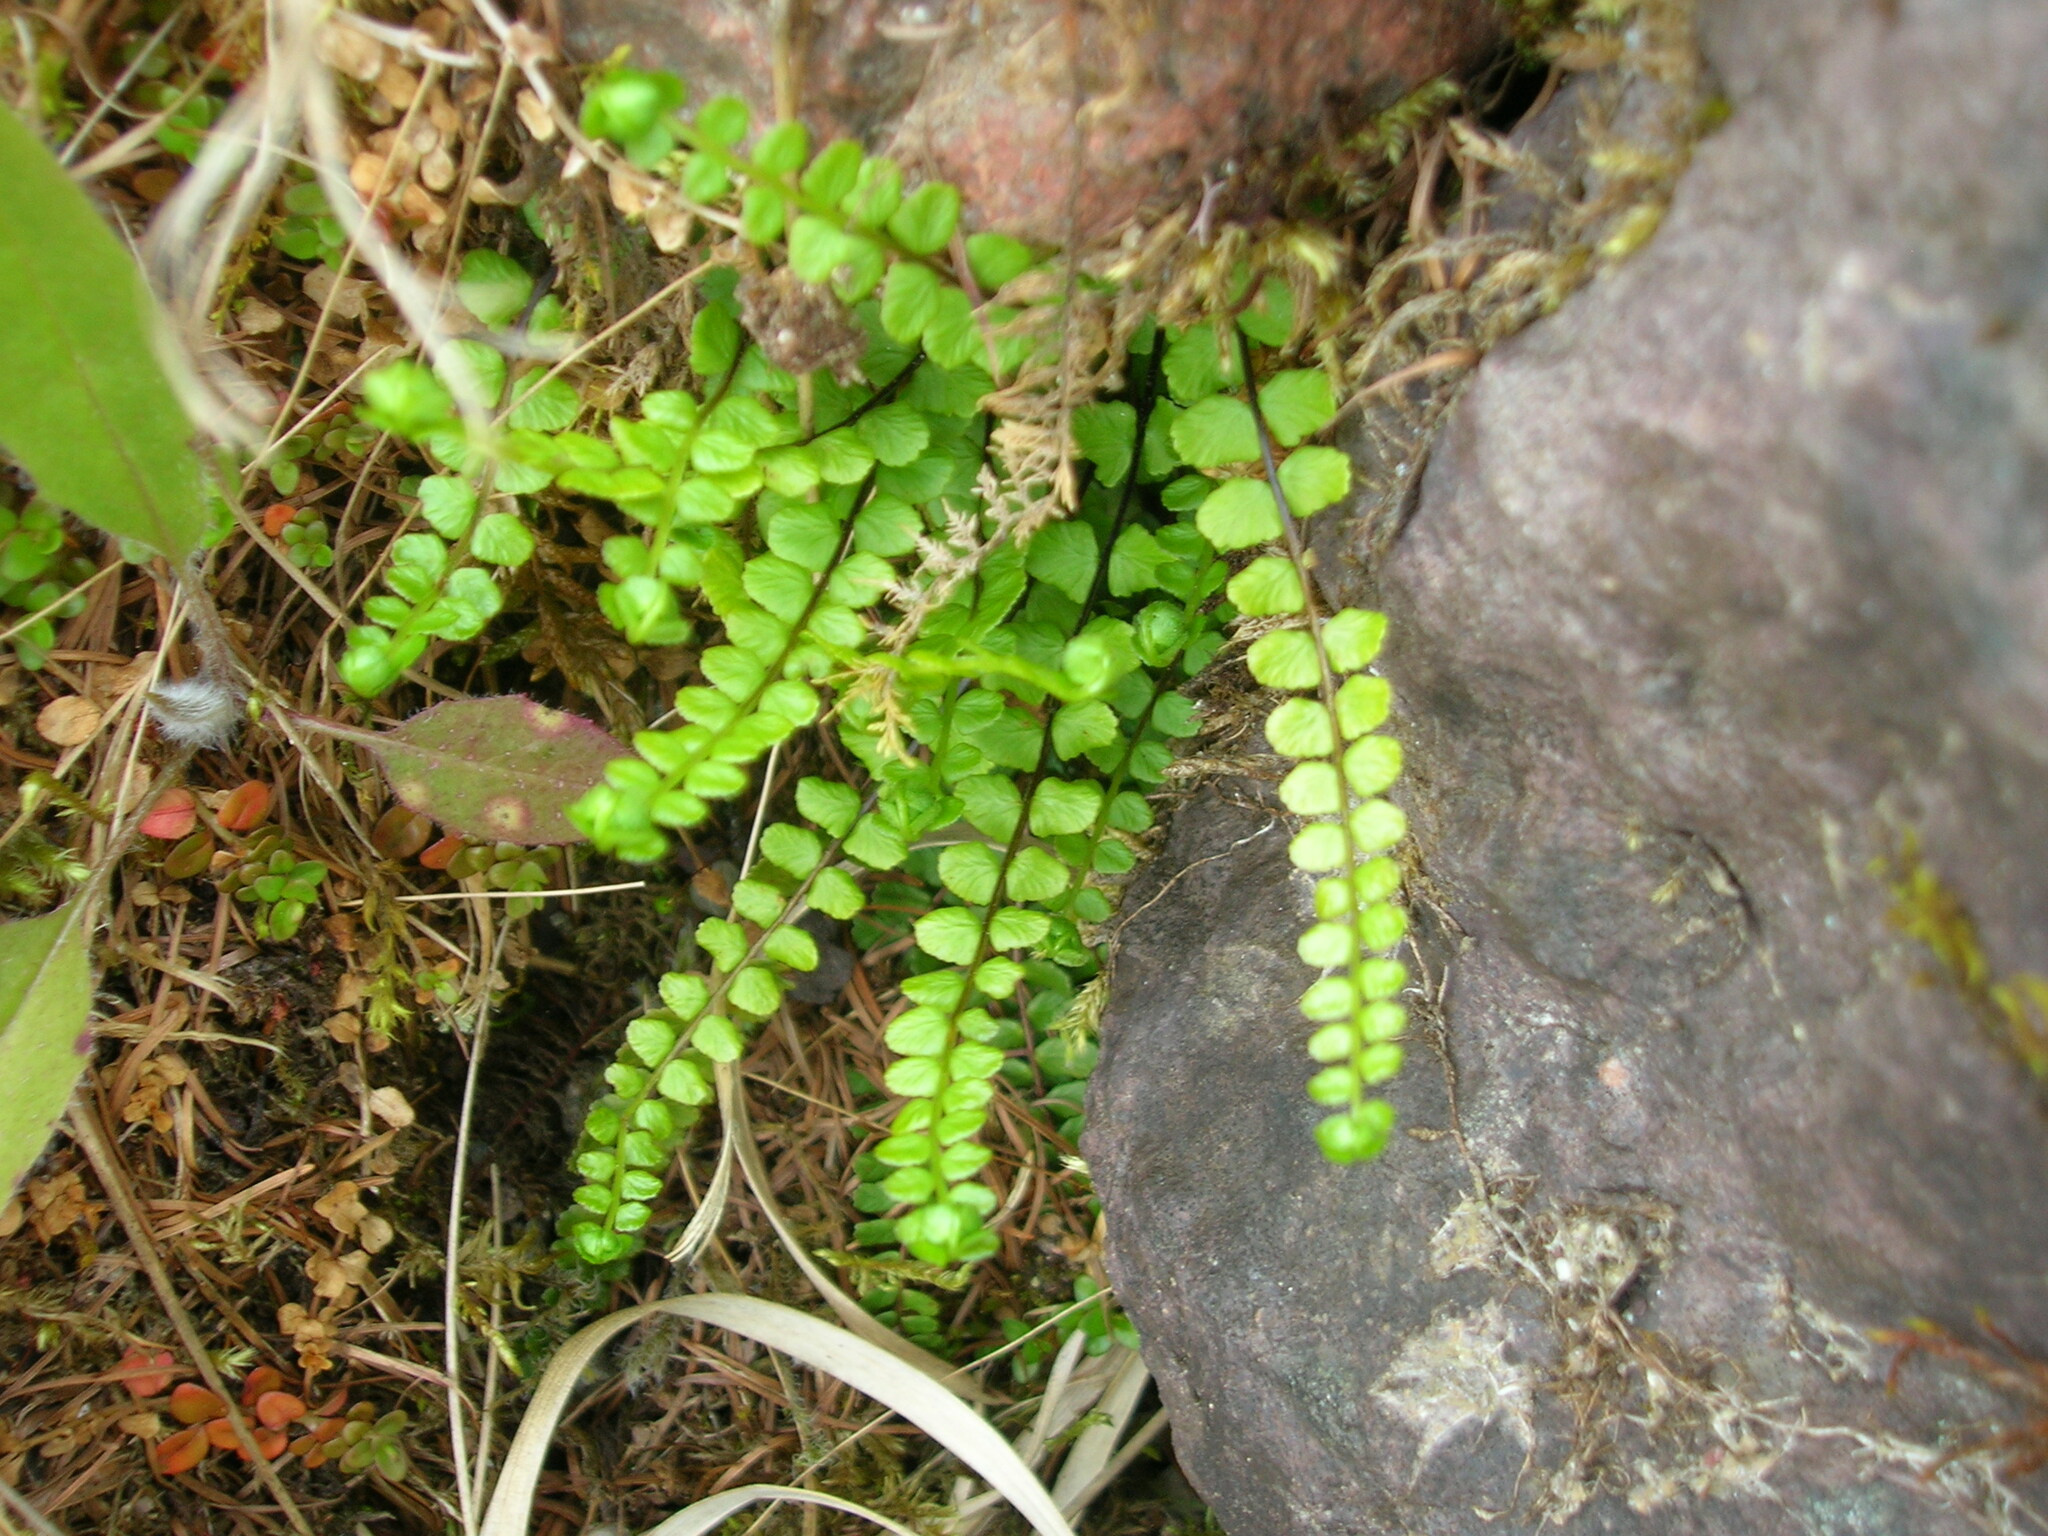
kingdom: Plantae
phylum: Tracheophyta
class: Polypodiopsida
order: Polypodiales
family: Aspleniaceae
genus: Asplenium
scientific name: Asplenium trichomanes
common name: Maidenhair spleenwort
